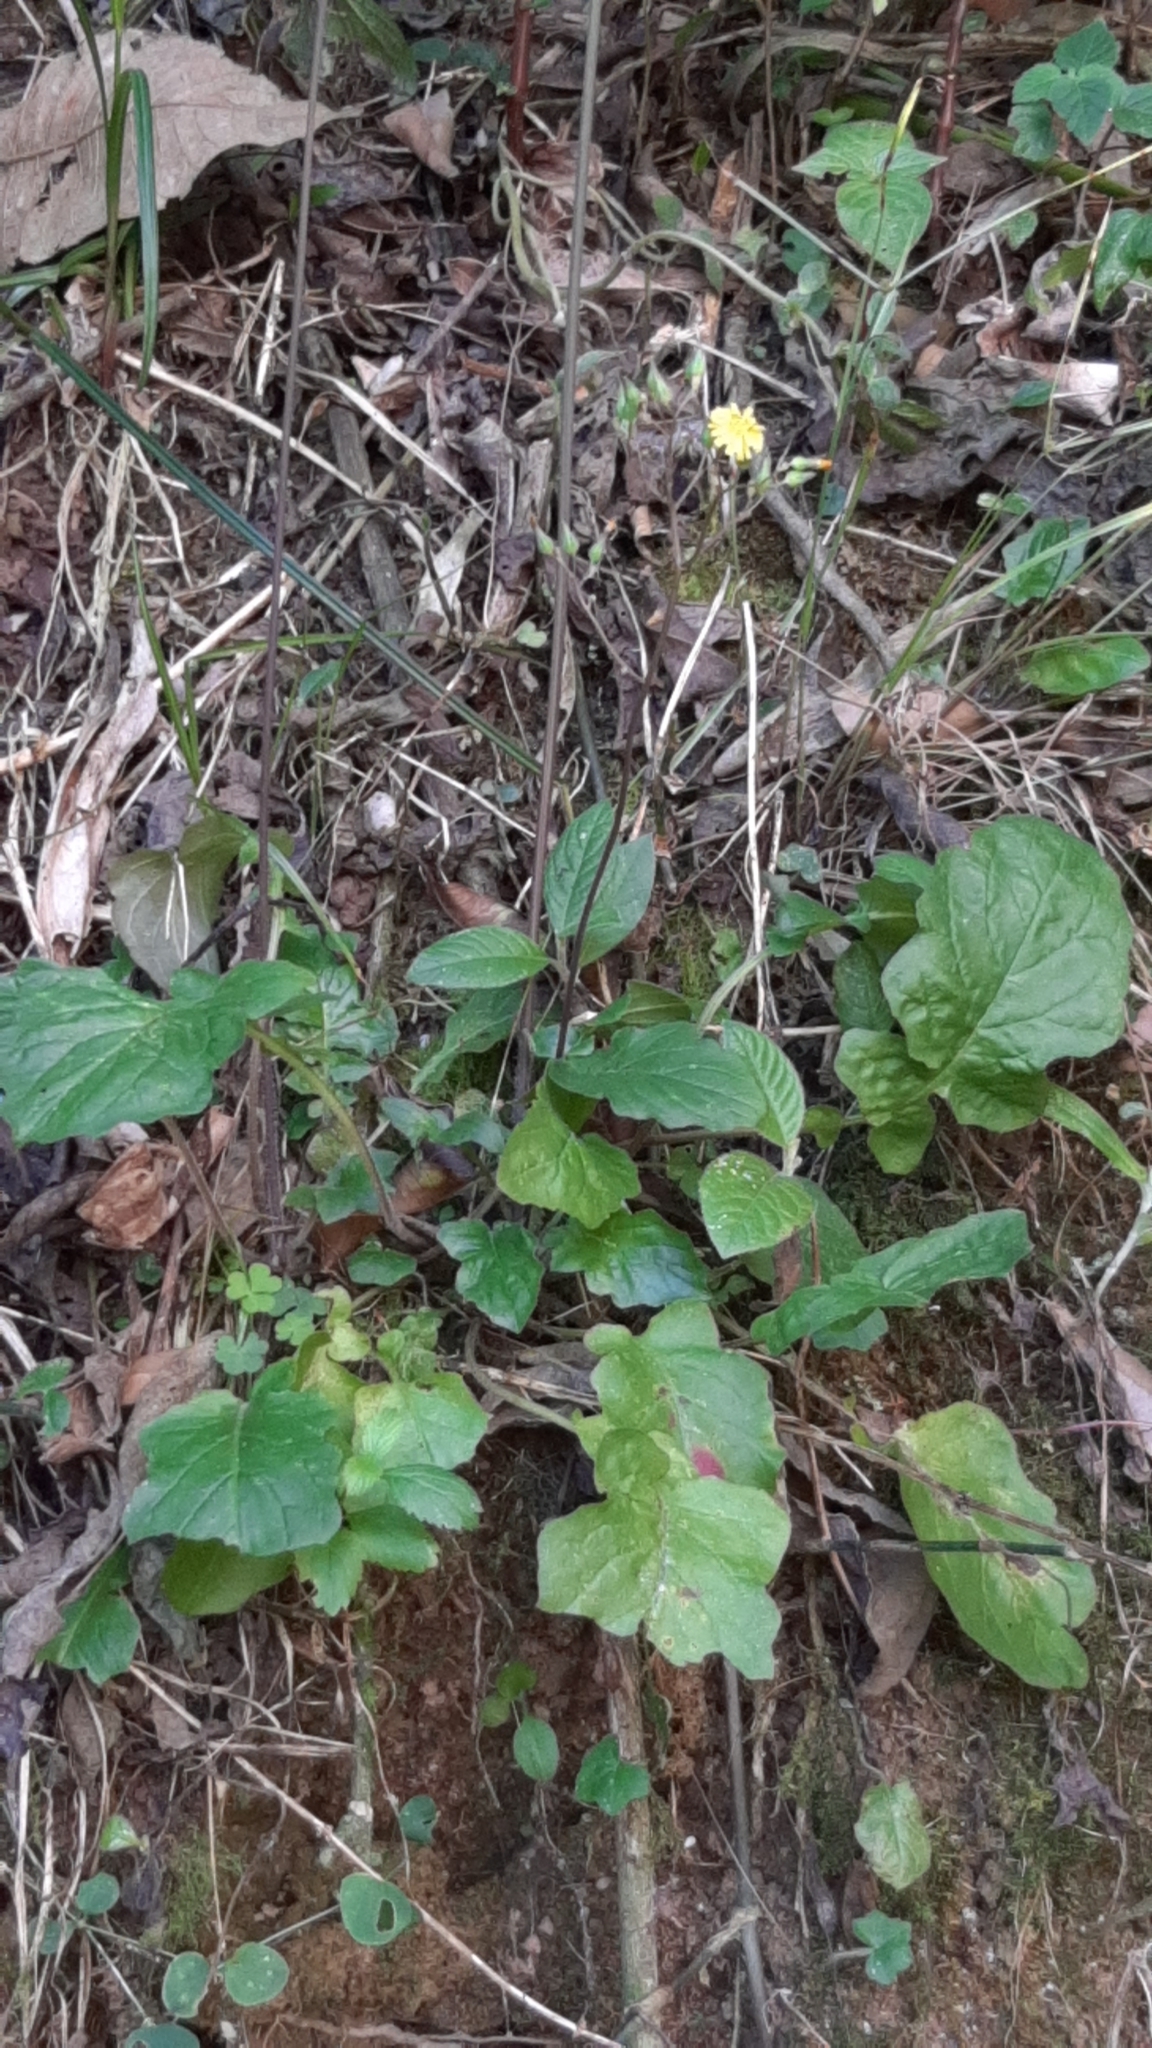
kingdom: Plantae
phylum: Tracheophyta
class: Magnoliopsida
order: Asterales
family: Asteraceae
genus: Youngia
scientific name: Youngia japonica
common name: Oriental false hawksbeard
